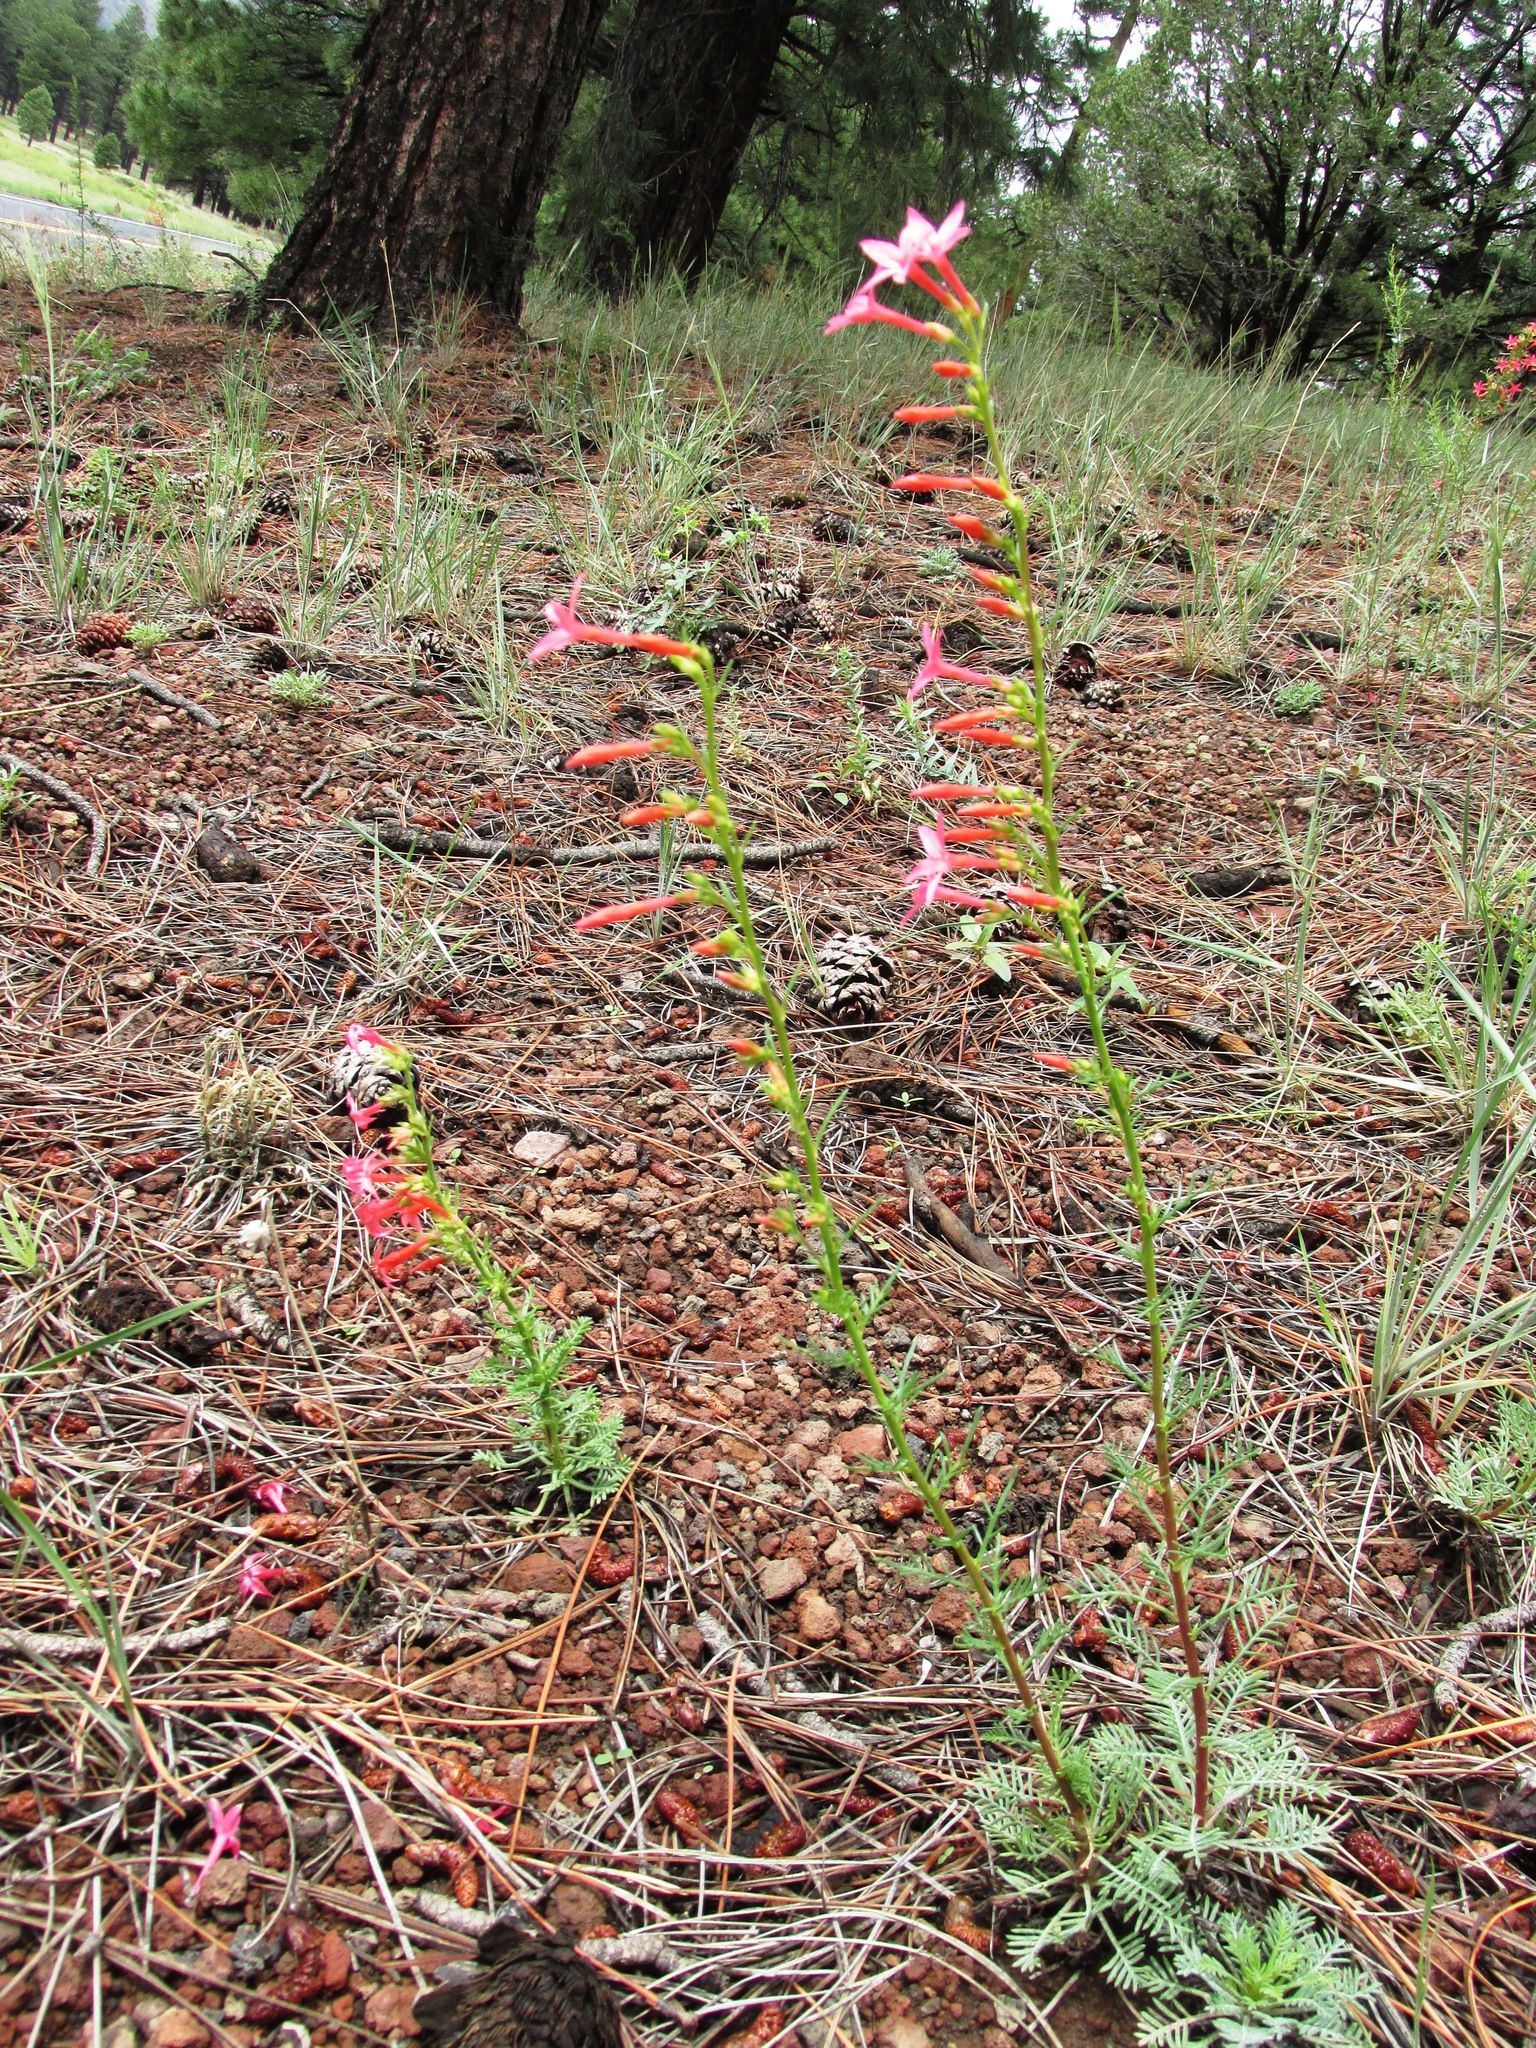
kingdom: Plantae
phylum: Tracheophyta
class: Magnoliopsida
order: Ericales
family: Polemoniaceae
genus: Ipomopsis
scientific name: Ipomopsis arizonica
